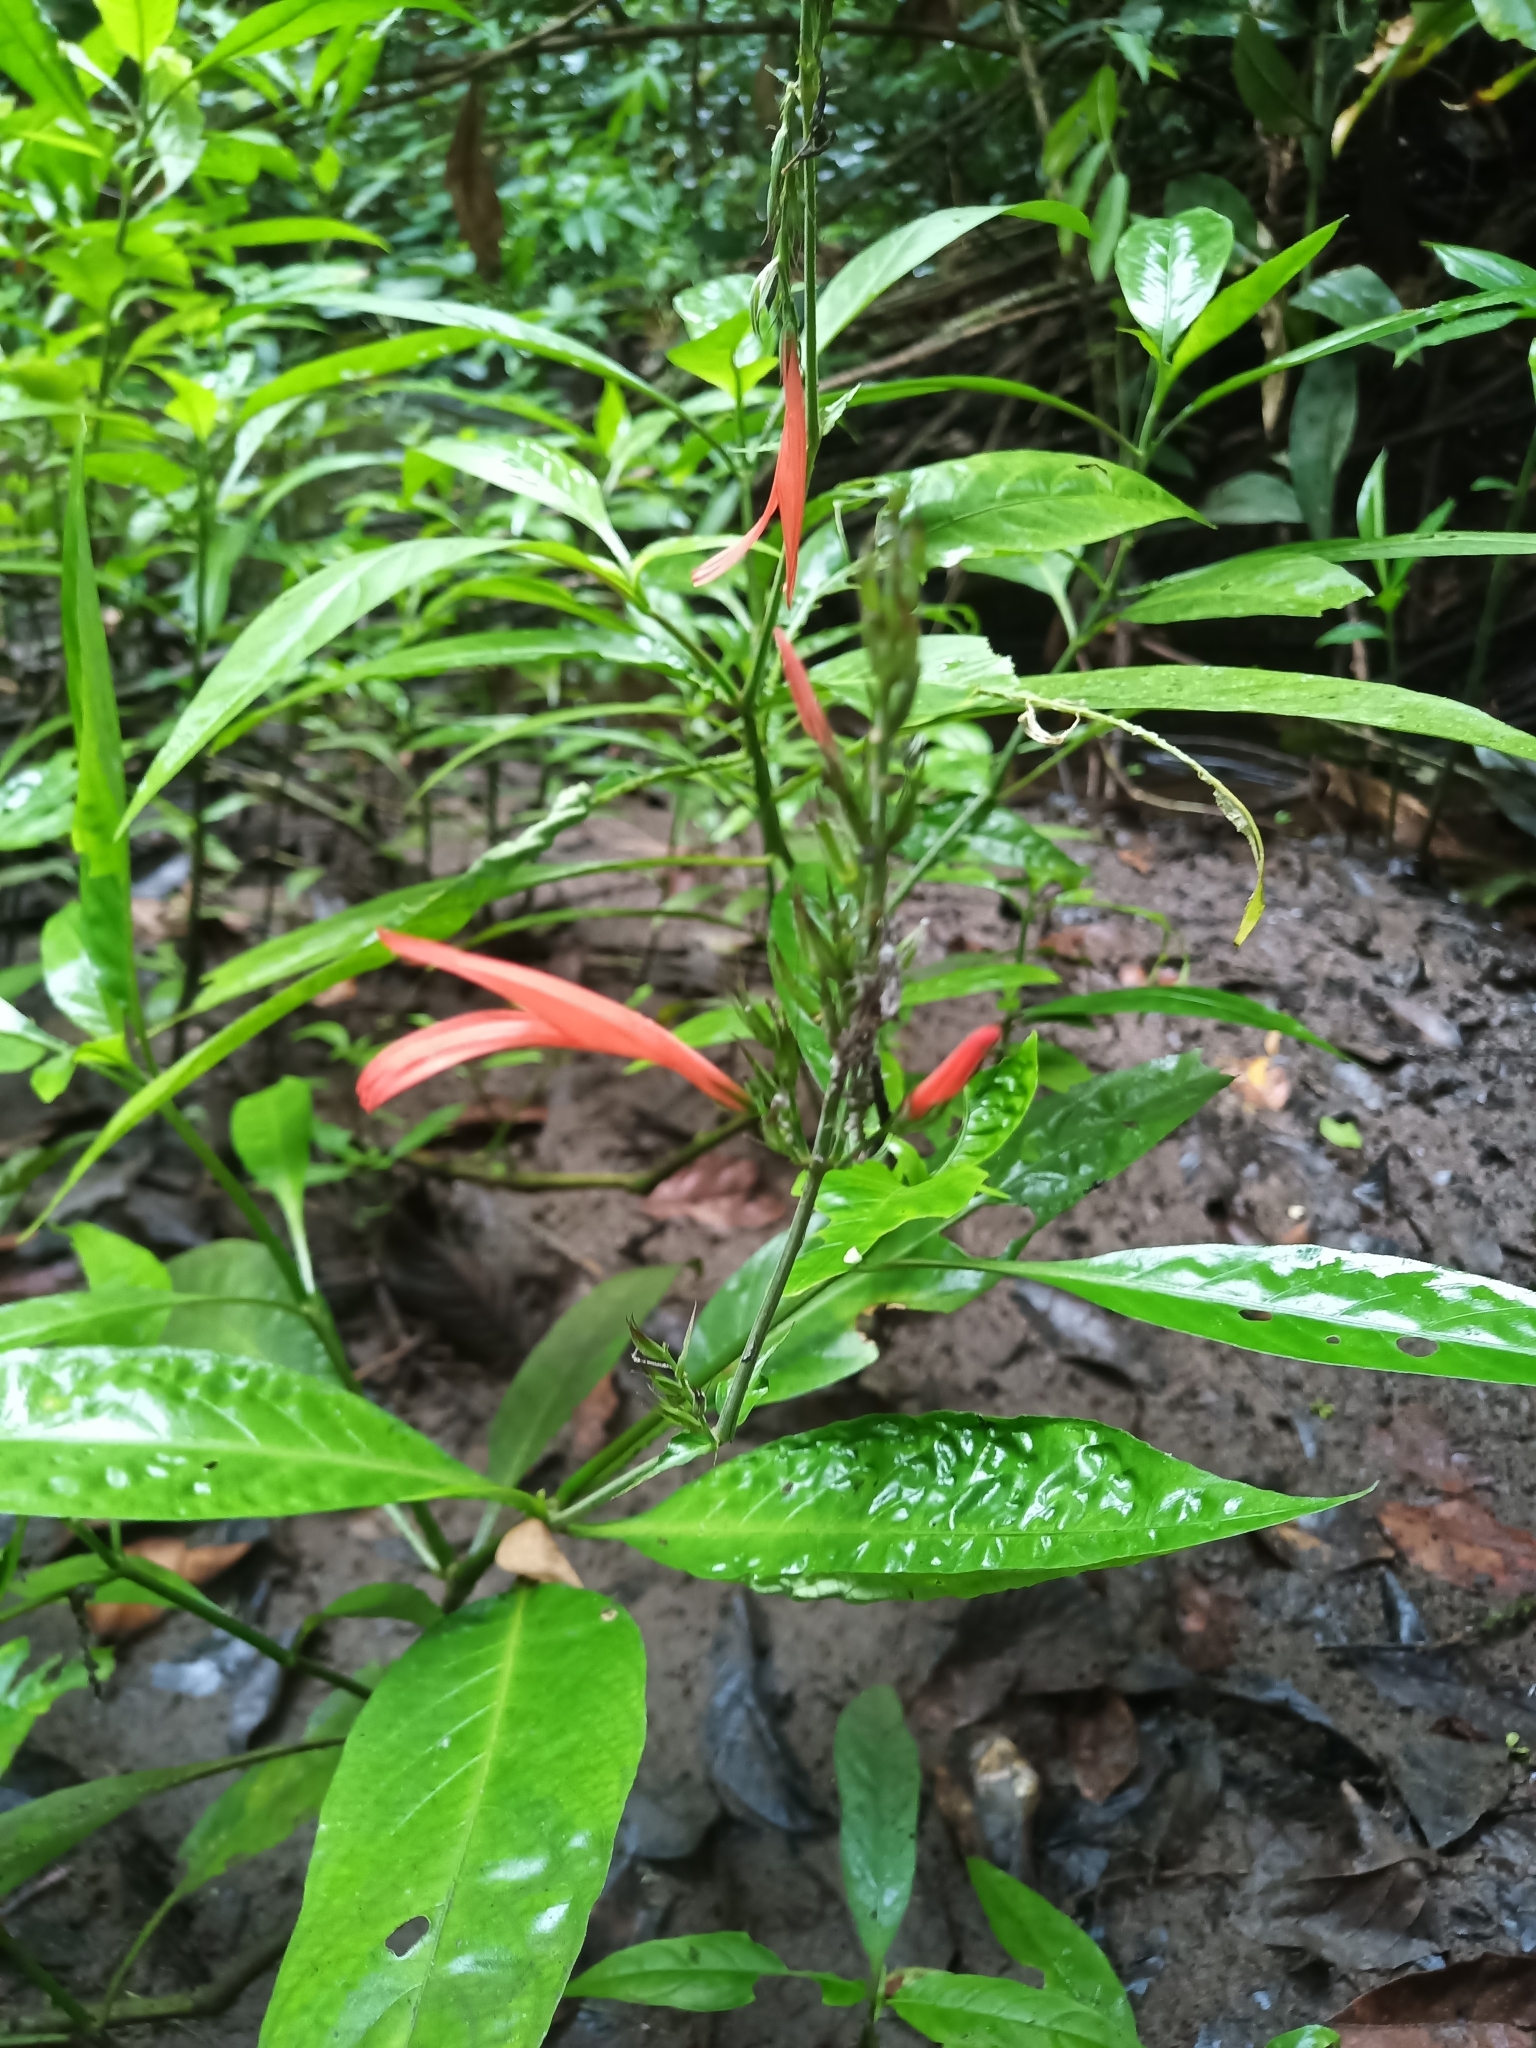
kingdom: Plantae
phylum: Tracheophyta
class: Magnoliopsida
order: Lamiales
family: Acanthaceae
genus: Dianthera
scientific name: Dianthera calycina
